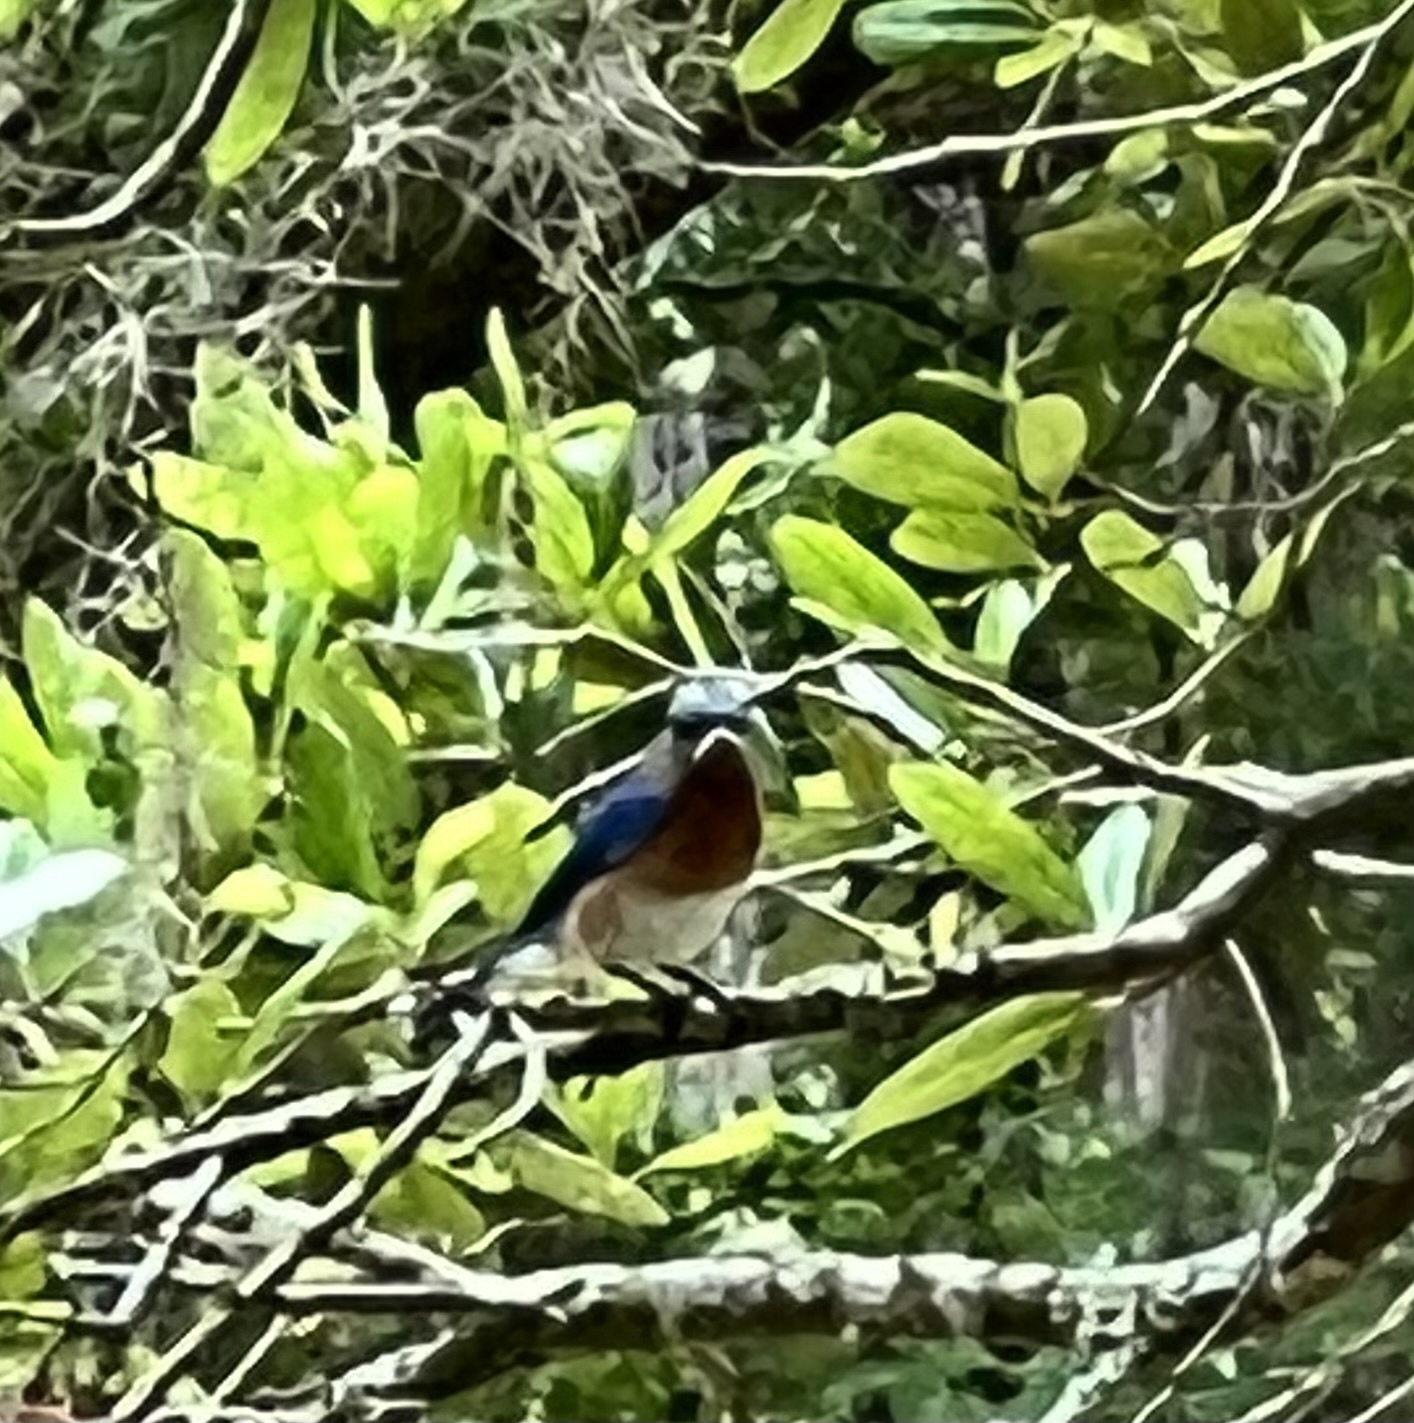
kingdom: Animalia
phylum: Chordata
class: Aves
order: Passeriformes
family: Turdidae
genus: Sialia
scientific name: Sialia sialis
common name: Eastern bluebird
